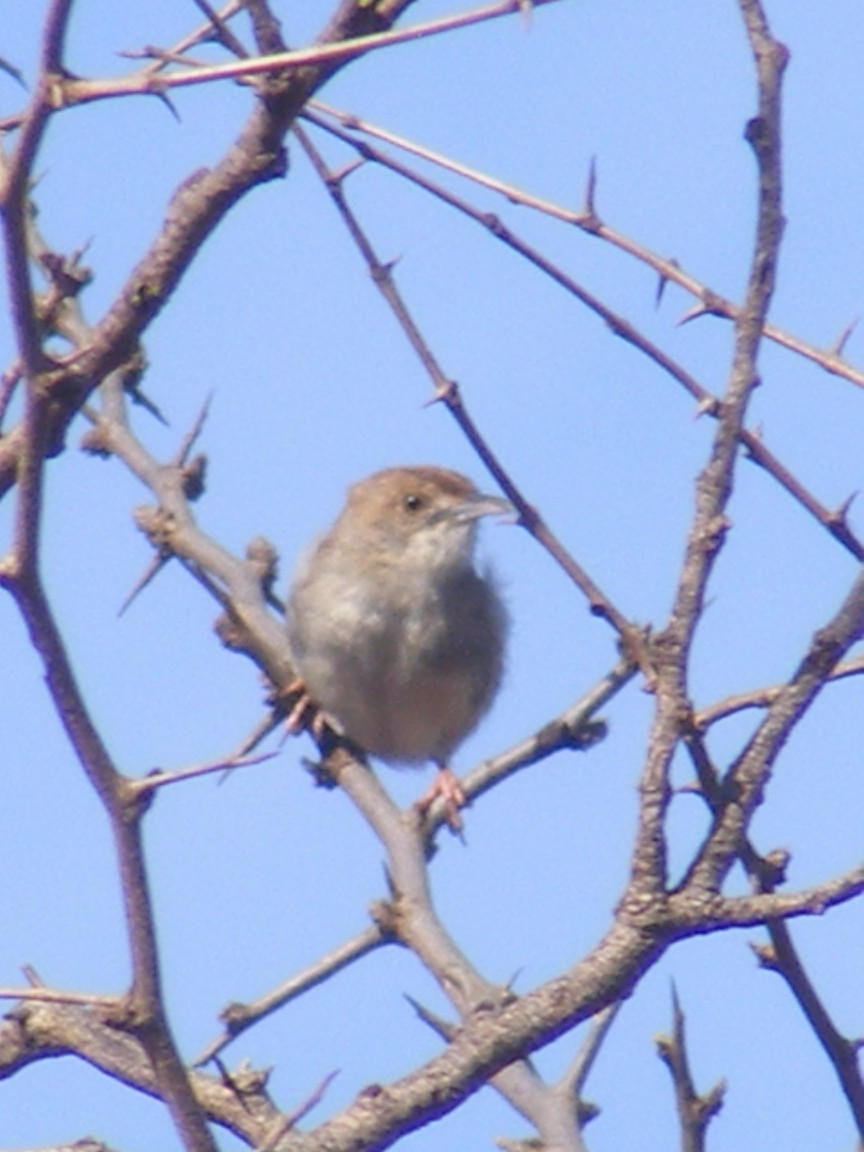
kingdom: Animalia
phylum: Chordata
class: Aves
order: Passeriformes
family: Cisticolidae
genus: Cisticola
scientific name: Cisticola chiniana
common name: Rattling cisticola
